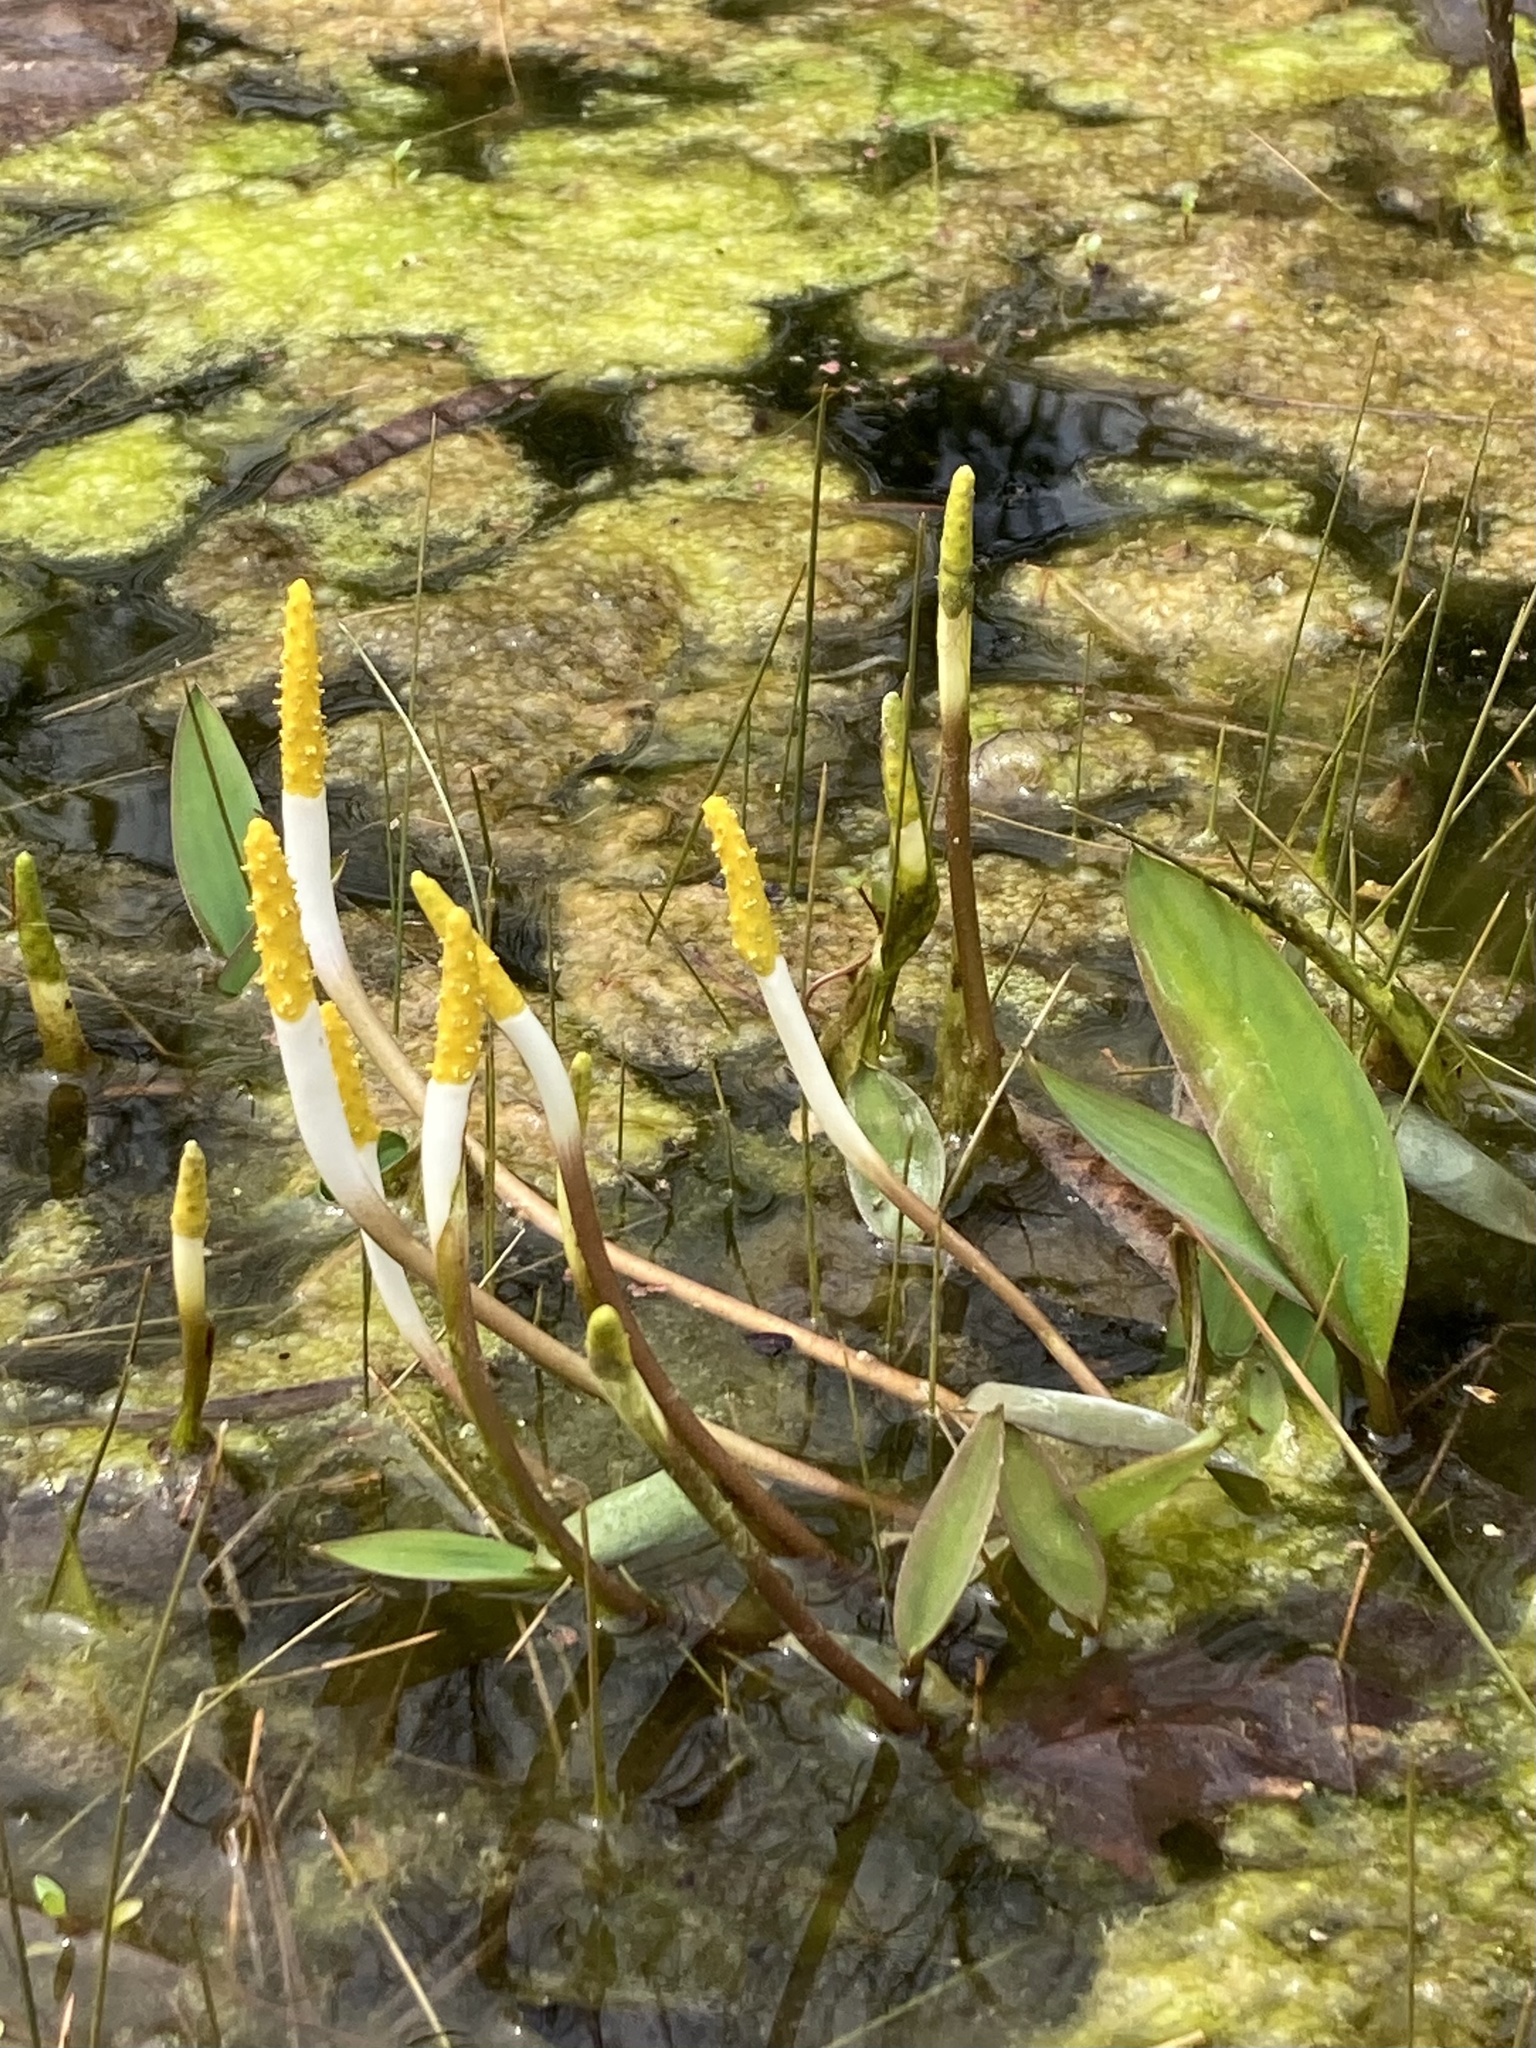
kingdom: Plantae
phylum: Tracheophyta
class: Liliopsida
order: Alismatales
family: Araceae
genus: Orontium
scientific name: Orontium aquaticum
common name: Golden-club
